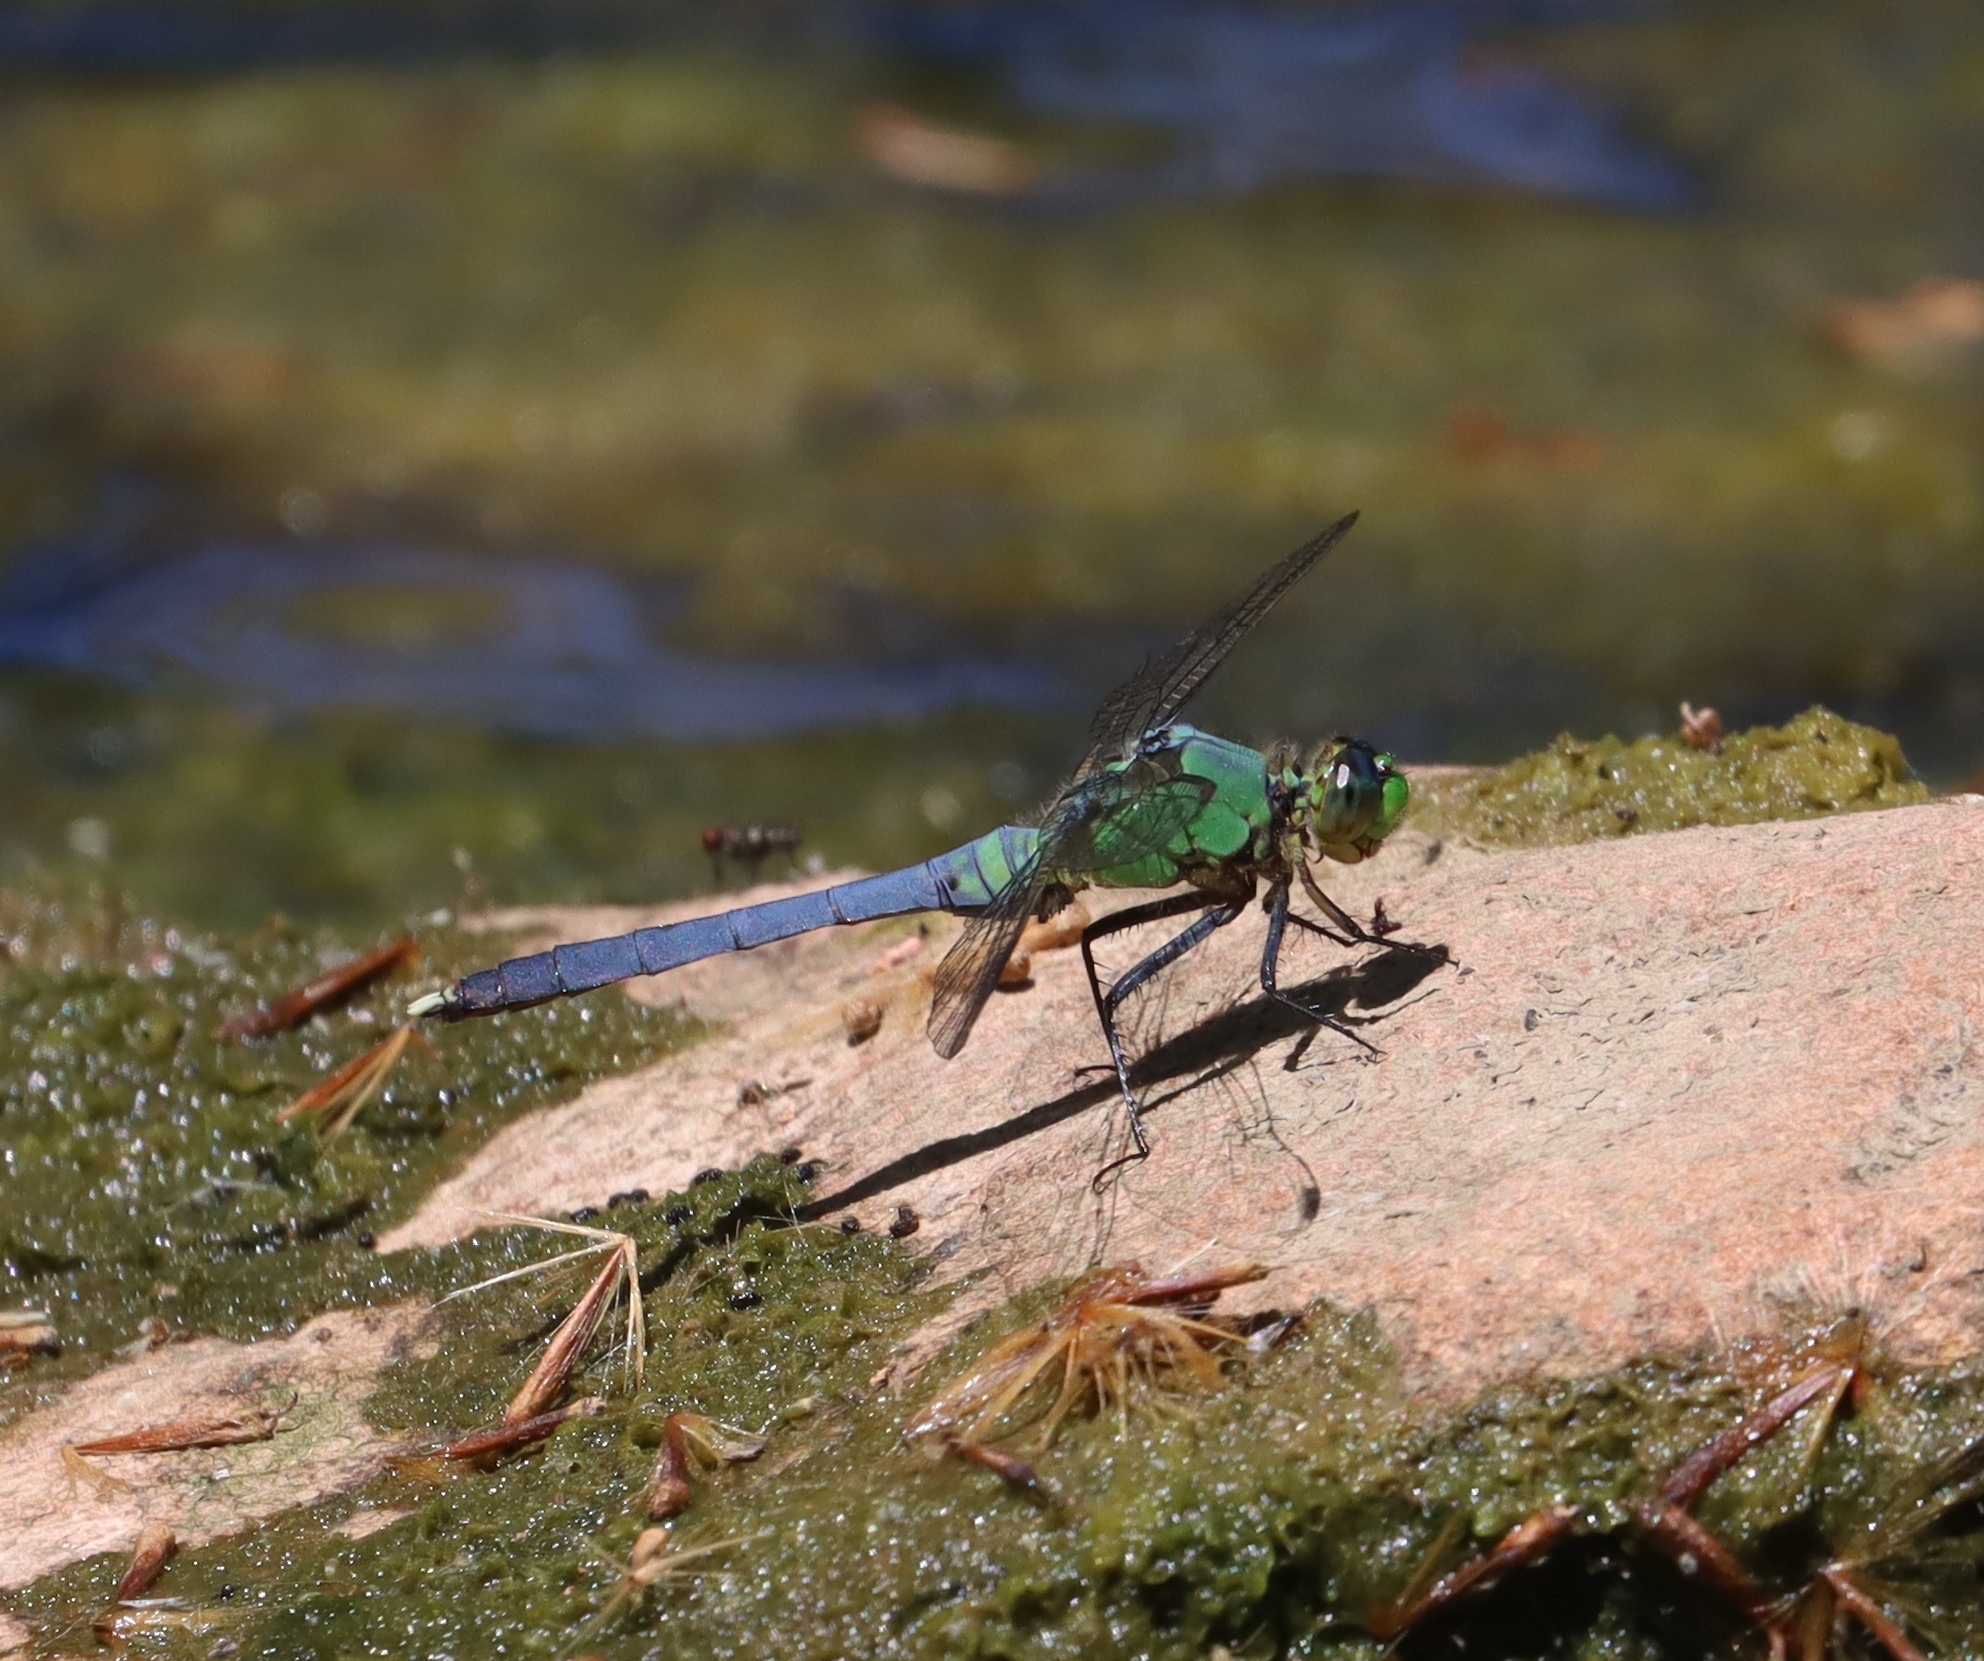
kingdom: Animalia
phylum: Arthropoda
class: Insecta
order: Odonata
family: Libellulidae
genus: Erythemis
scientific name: Erythemis simplicicollis
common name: Eastern pondhawk
